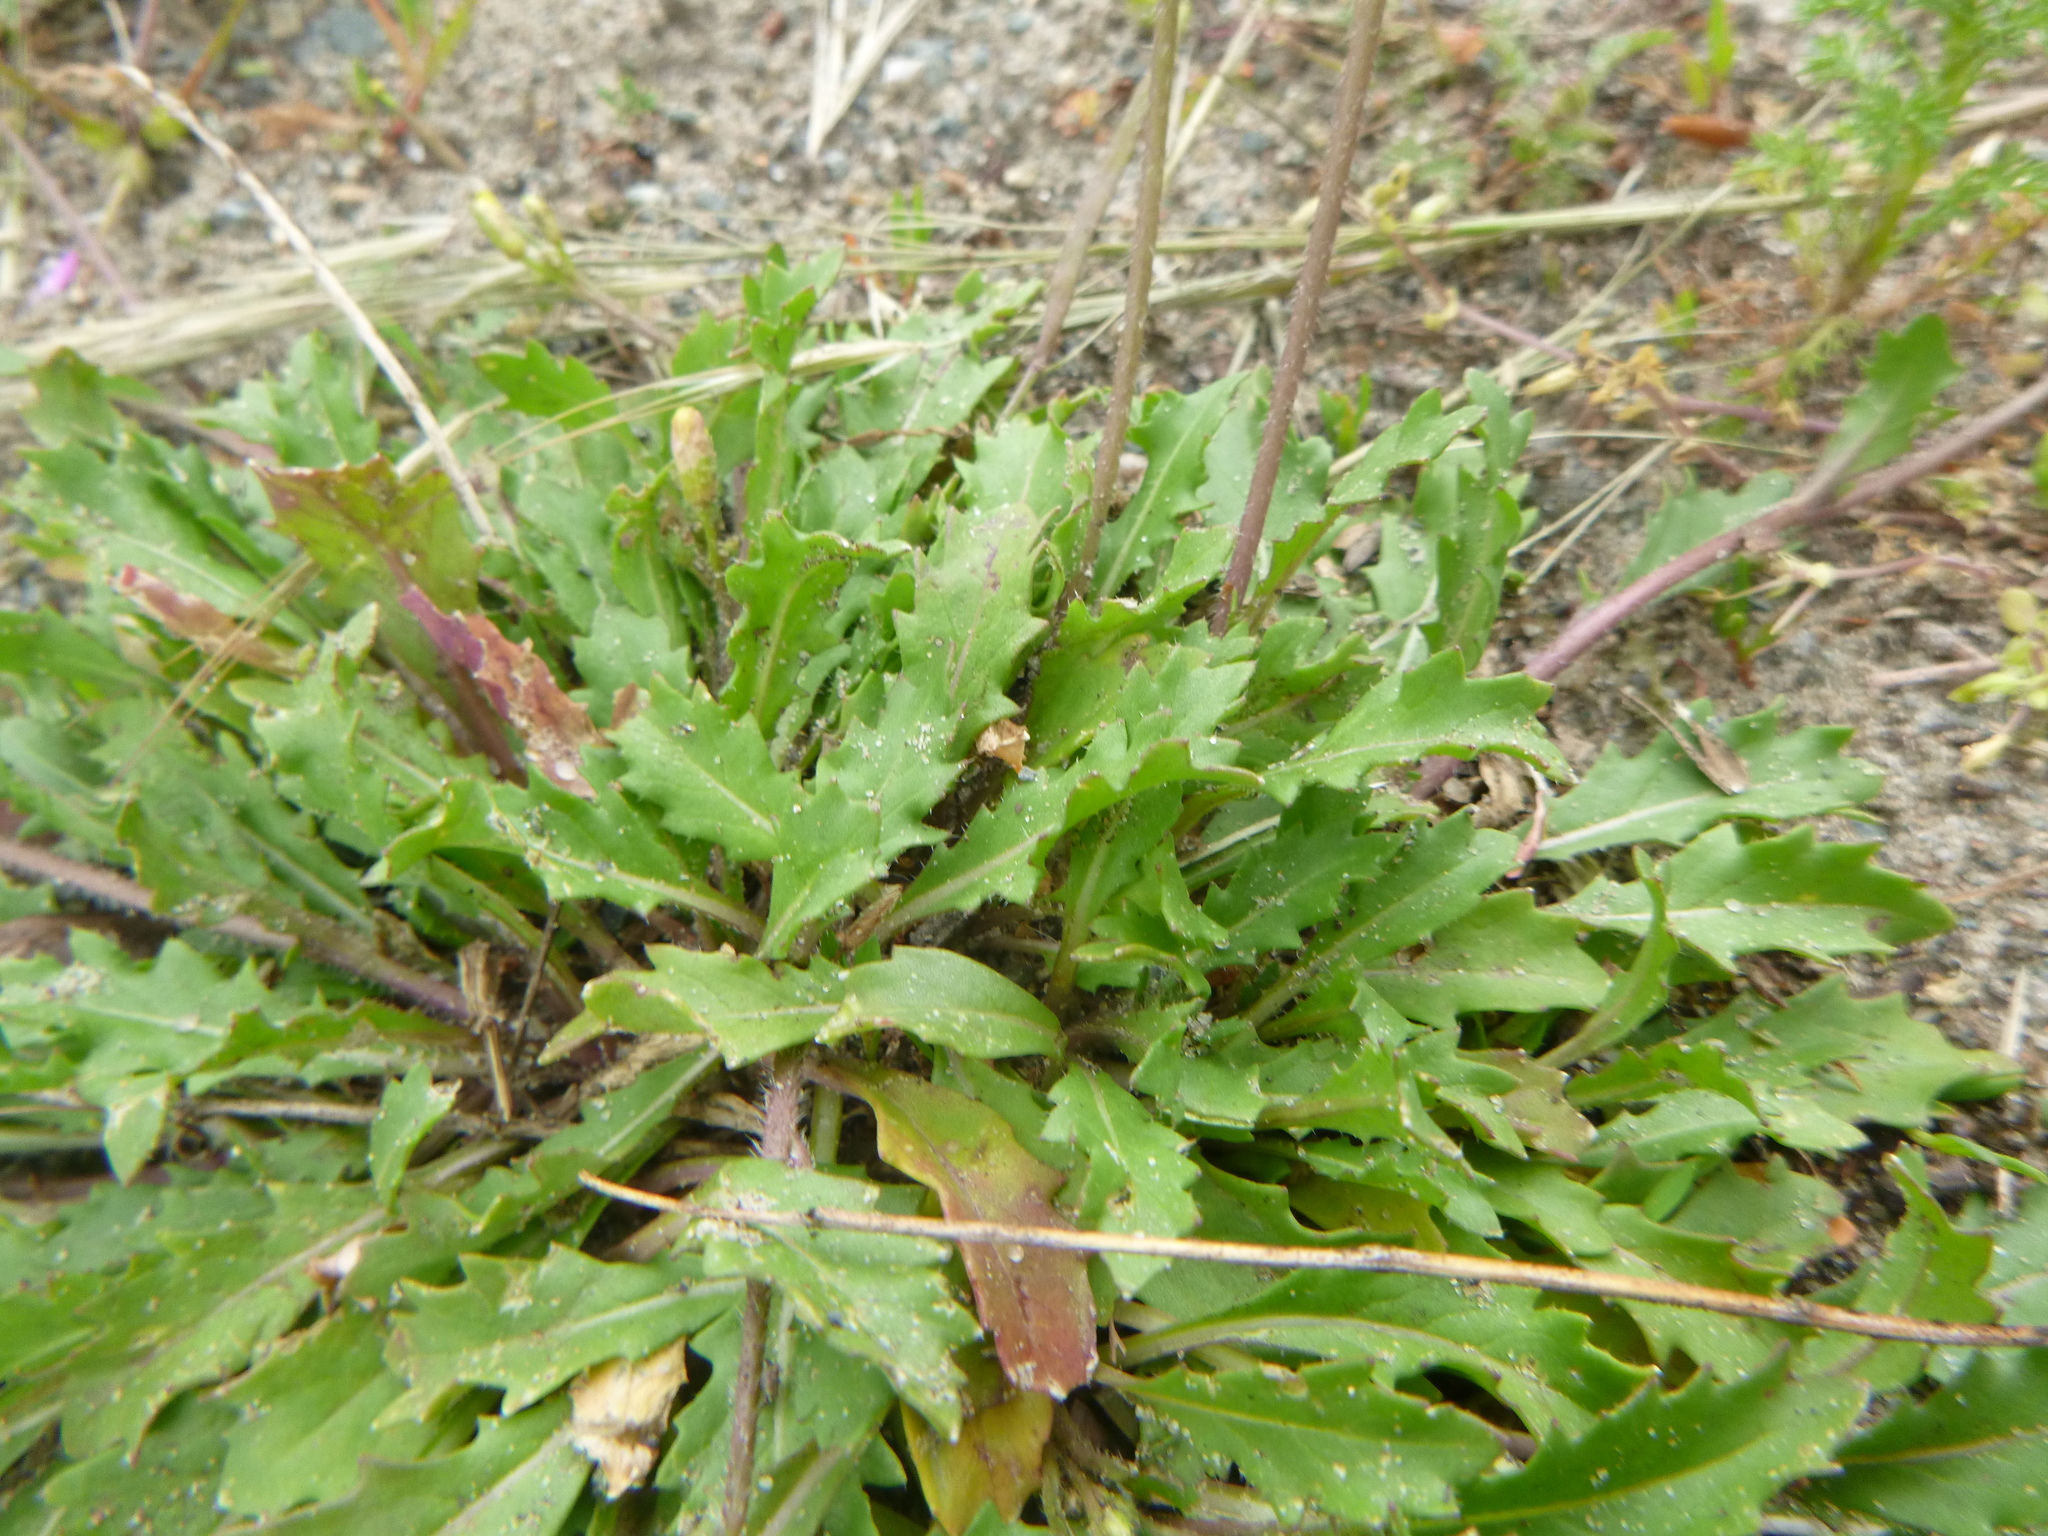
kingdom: Plantae
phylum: Tracheophyta
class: Magnoliopsida
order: Brassicales
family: Brassicaceae
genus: Diplotaxis
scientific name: Diplotaxis muralis
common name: Annual wall-rocket
